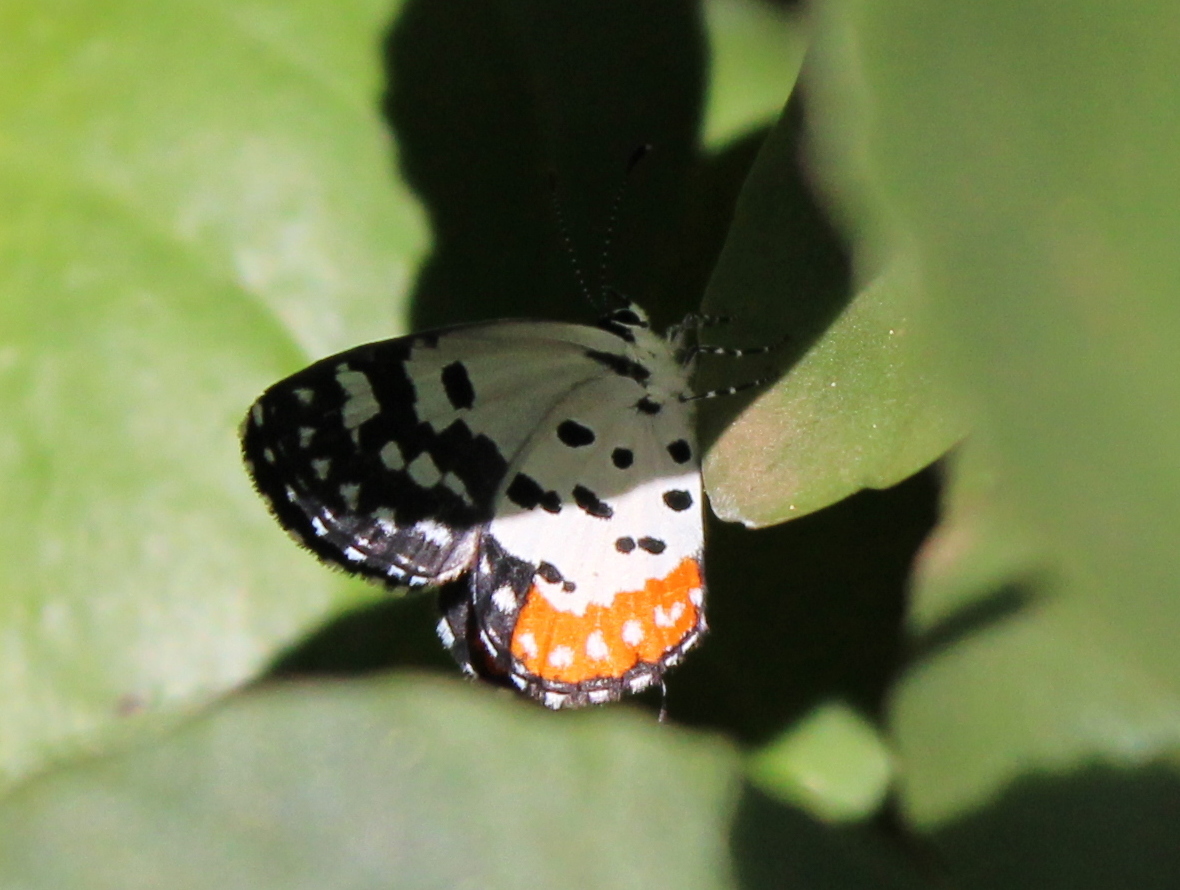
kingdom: Animalia
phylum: Arthropoda
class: Insecta
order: Lepidoptera
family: Lycaenidae
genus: Talicada
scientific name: Talicada nyseus
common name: Red pierrot
